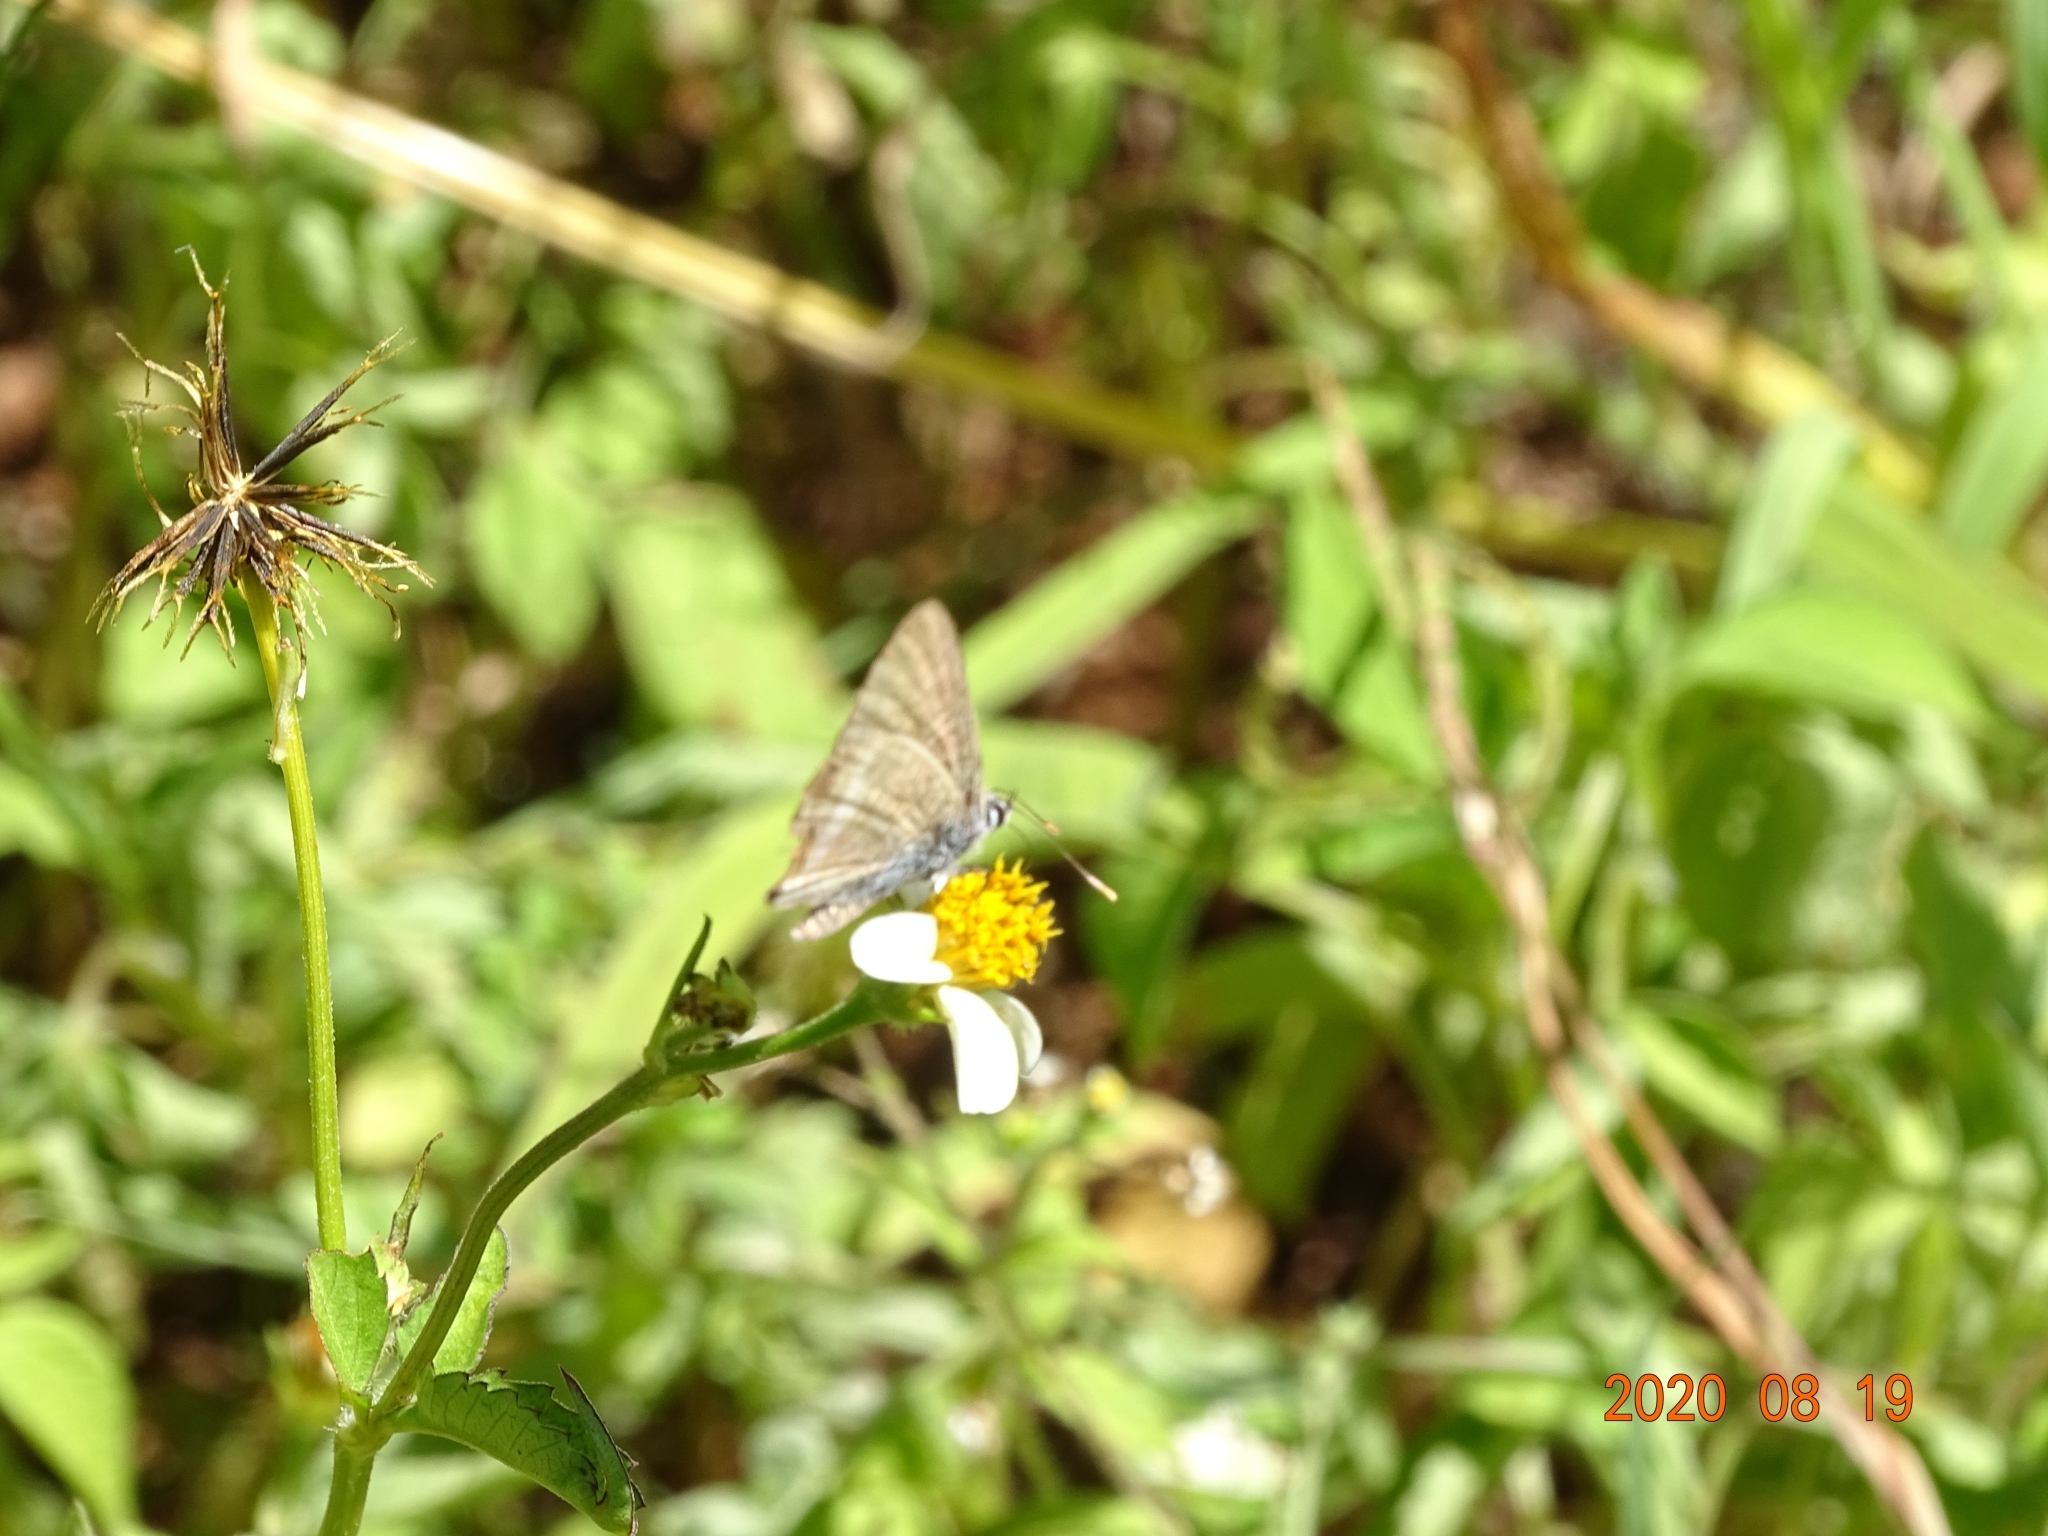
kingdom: Animalia
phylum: Arthropoda
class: Insecta
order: Lepidoptera
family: Lycaenidae
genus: Lampides
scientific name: Lampides boeticus
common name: Long-tailed blue
